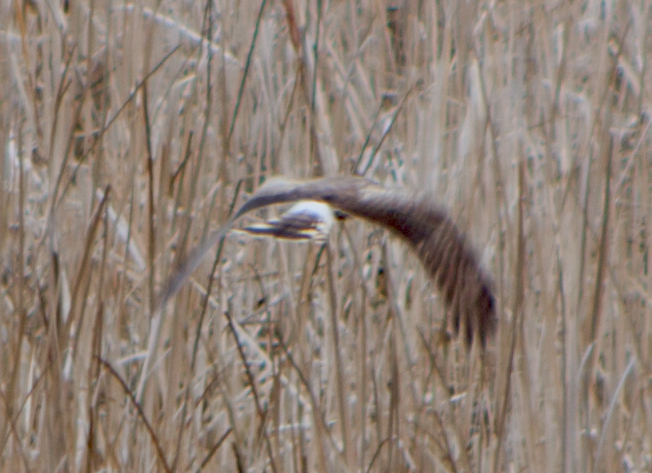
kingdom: Animalia
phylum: Chordata
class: Aves
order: Accipitriformes
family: Accipitridae
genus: Circus
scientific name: Circus cyaneus
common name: Hen harrier
